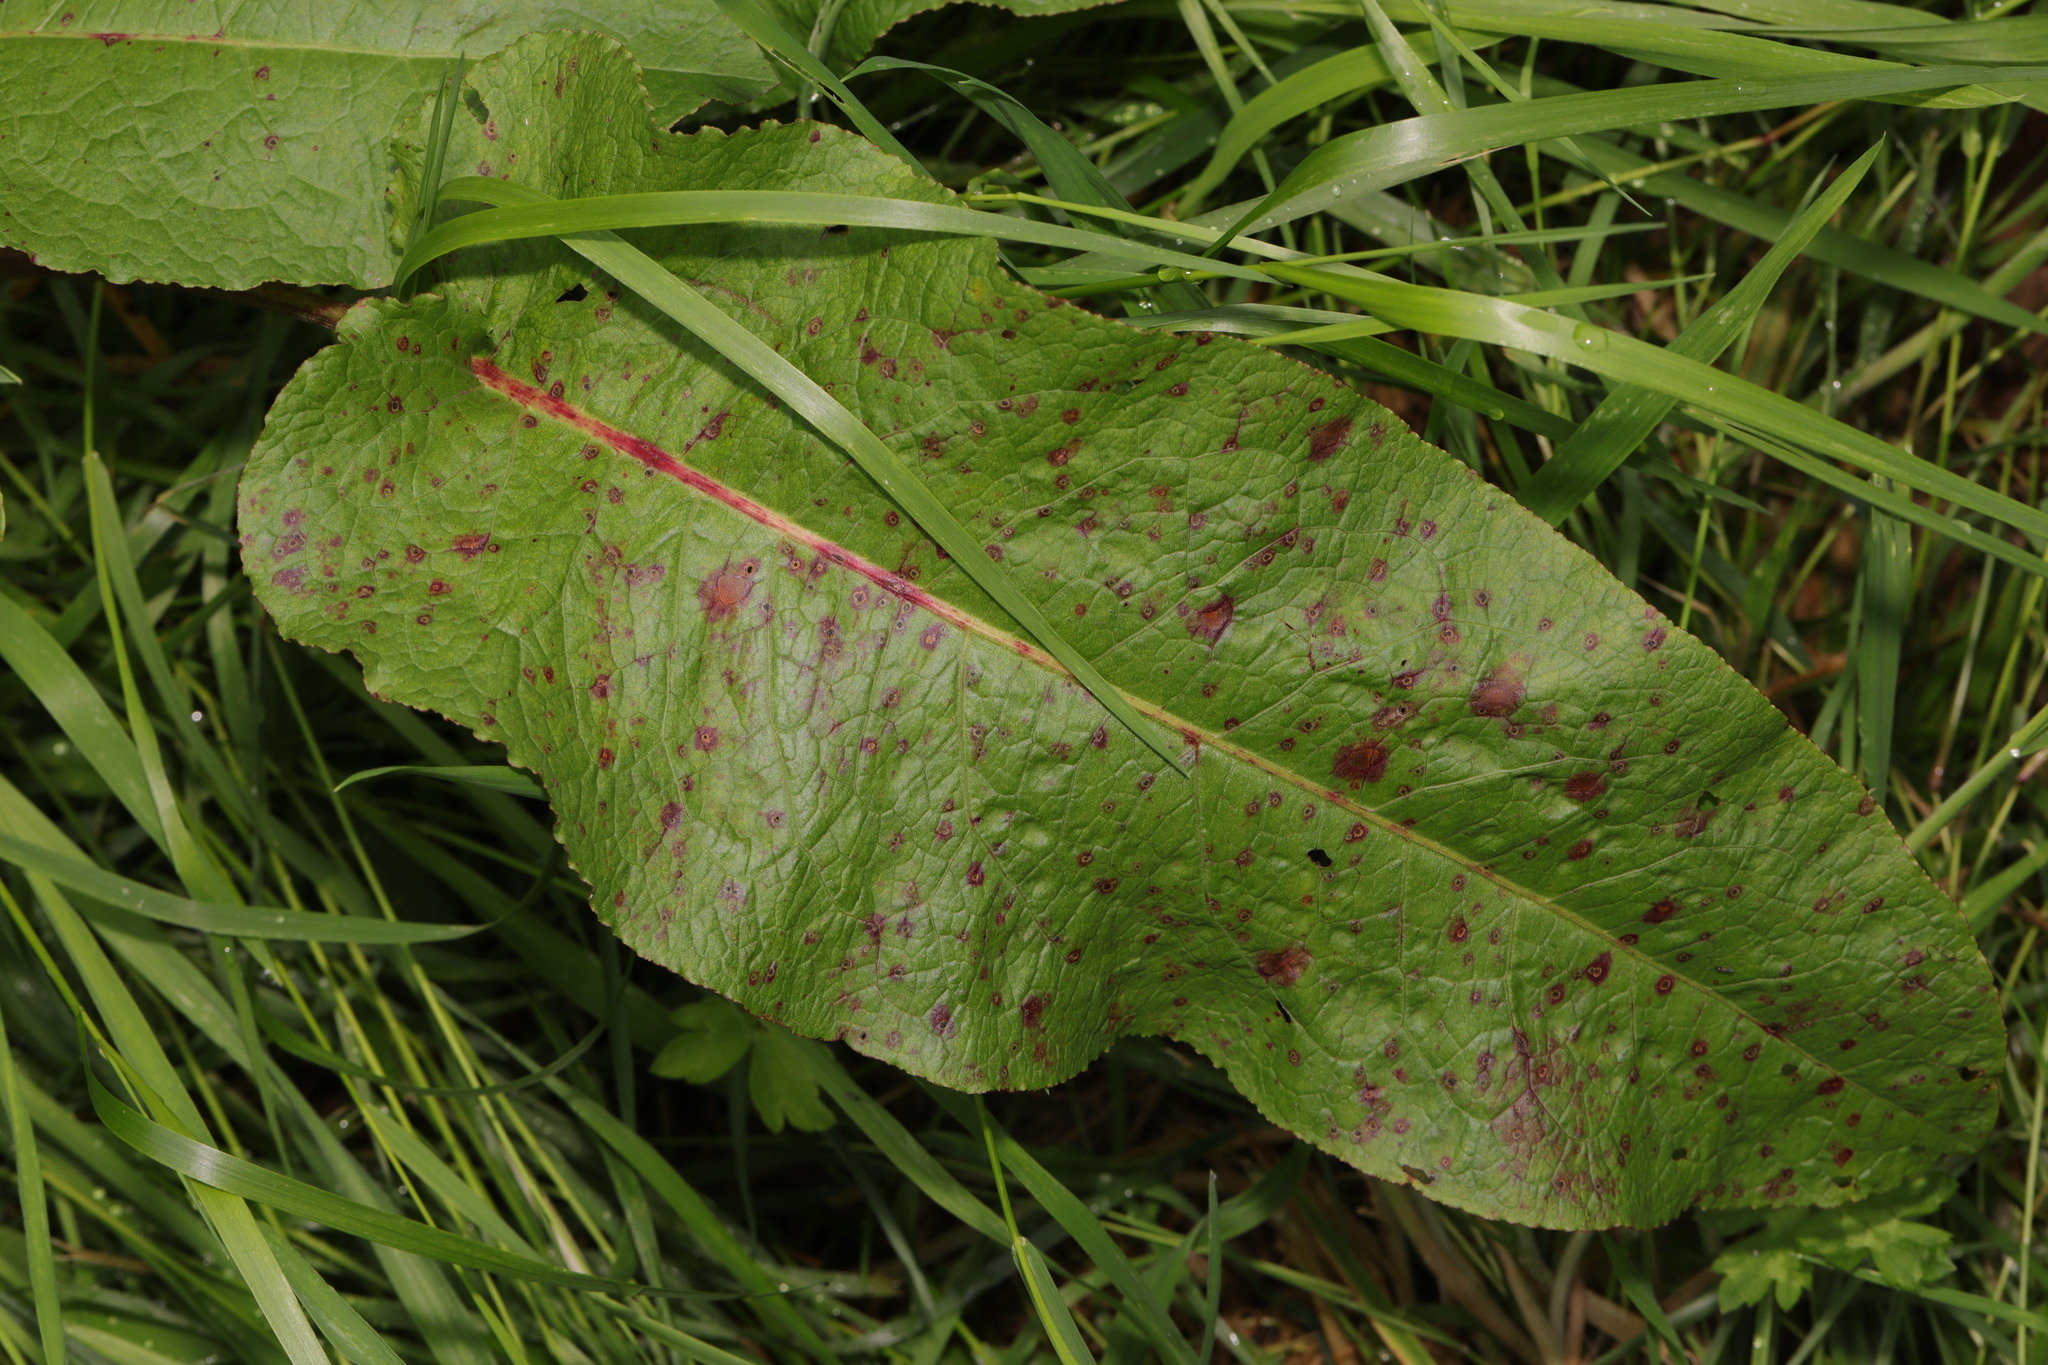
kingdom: Plantae
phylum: Tracheophyta
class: Magnoliopsida
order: Caryophyllales
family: Polygonaceae
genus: Rumex
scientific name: Rumex obtusifolius
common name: Bitter dock
